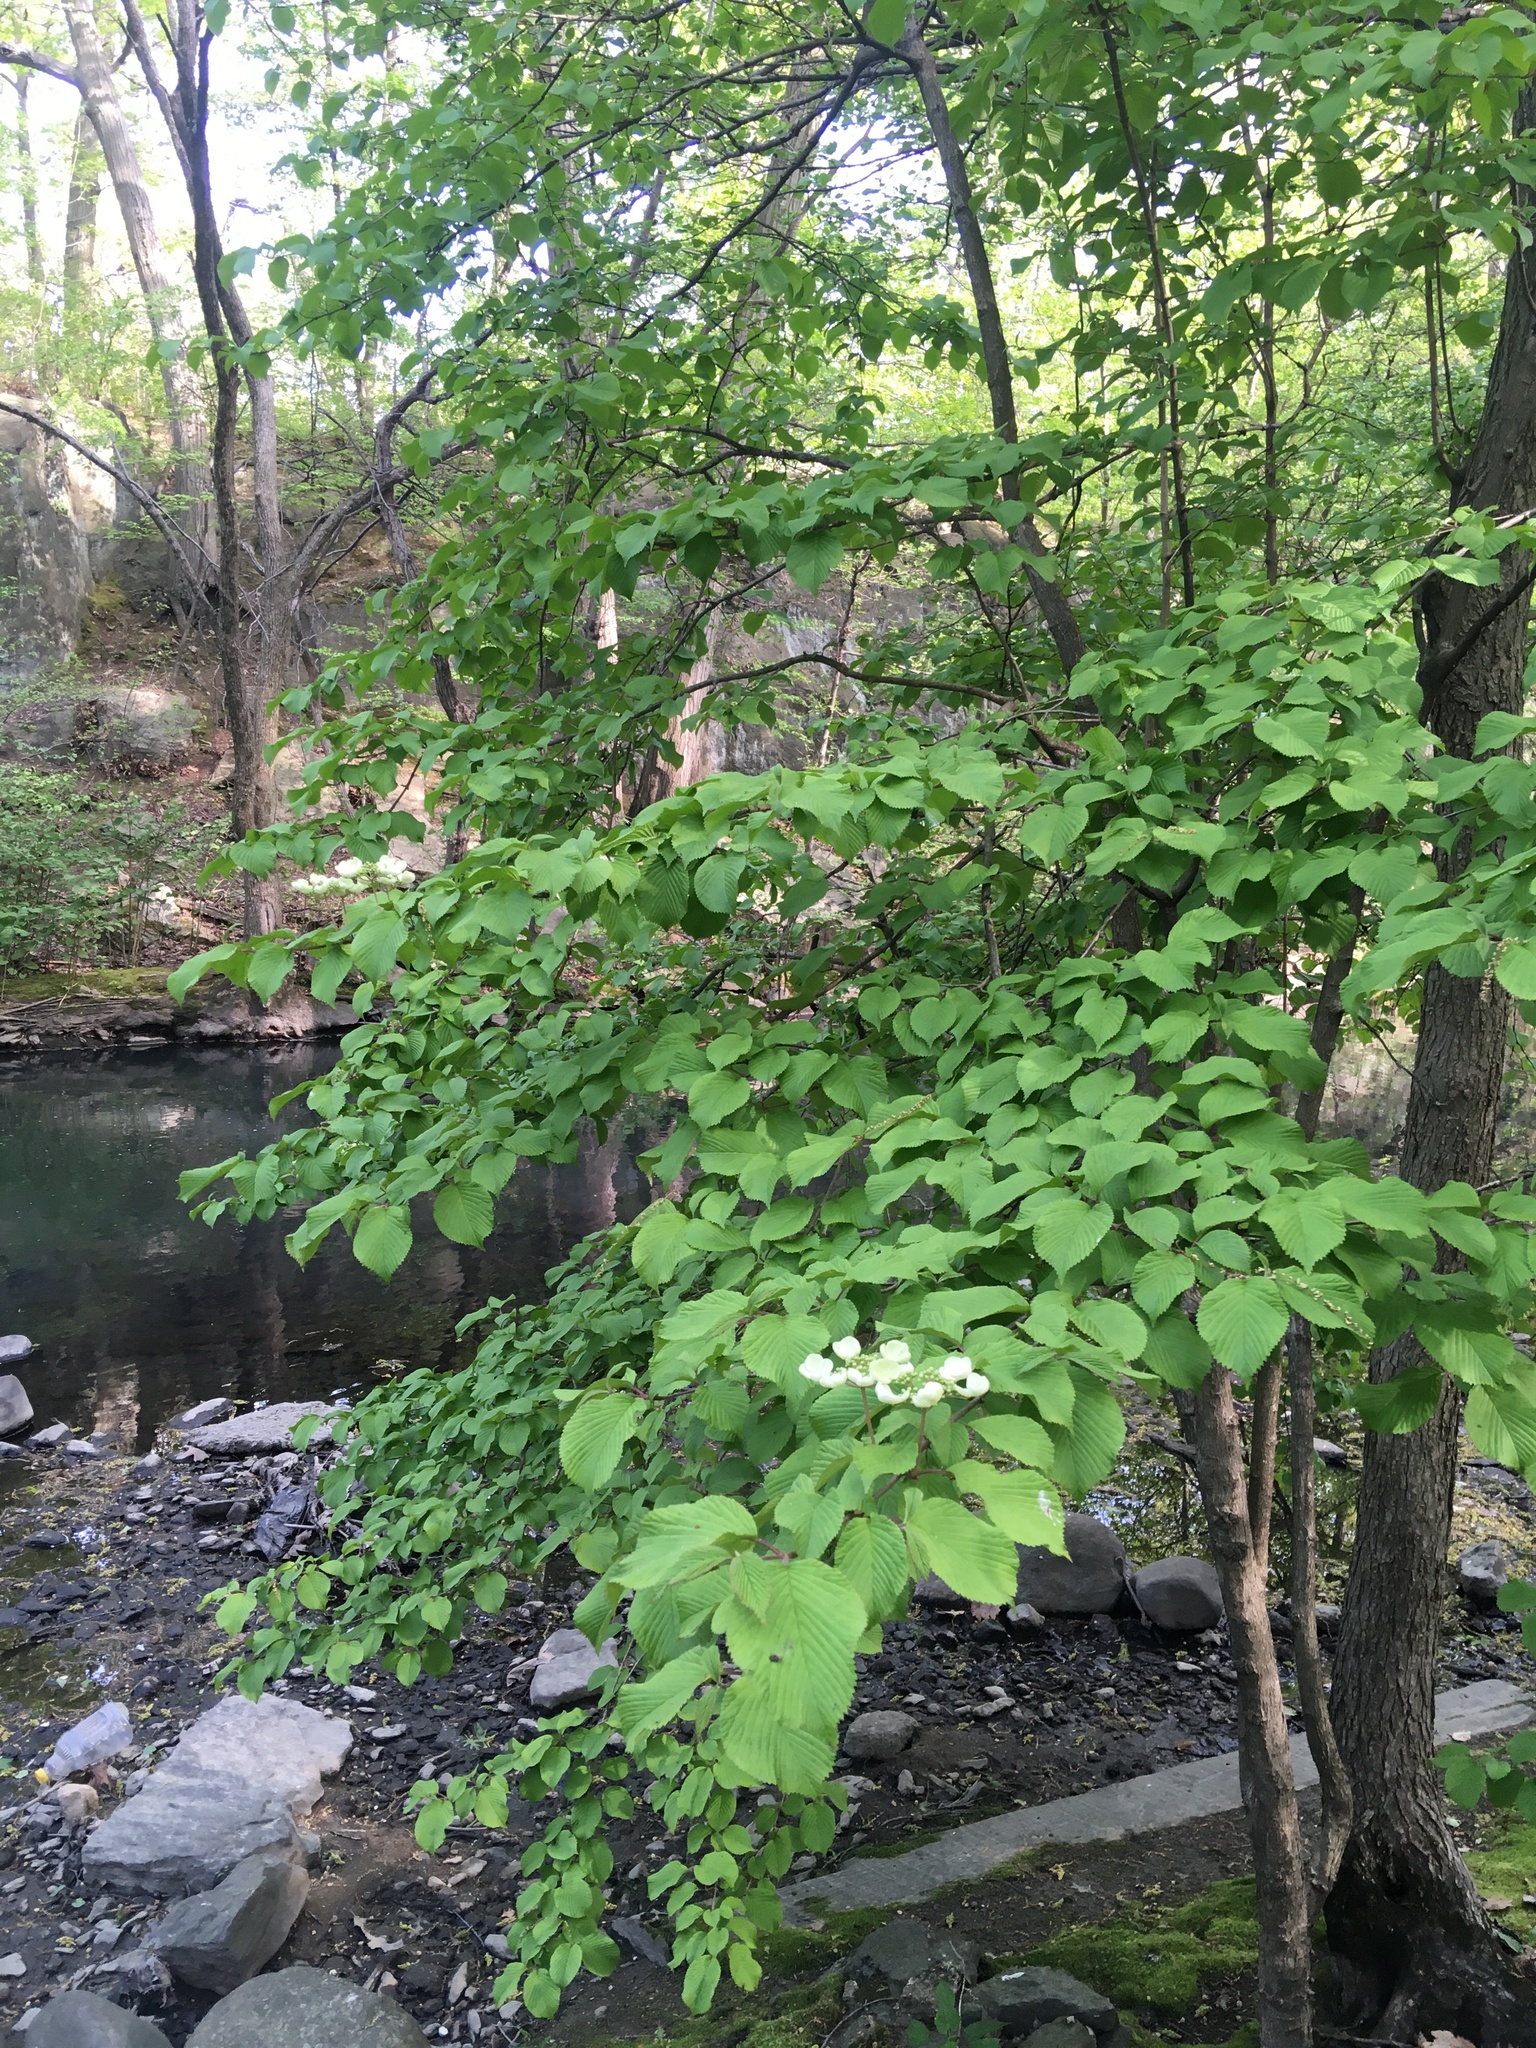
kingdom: Plantae
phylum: Tracheophyta
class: Magnoliopsida
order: Dipsacales
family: Viburnaceae
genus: Viburnum
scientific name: Viburnum plicatum
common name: Japanese snowball
